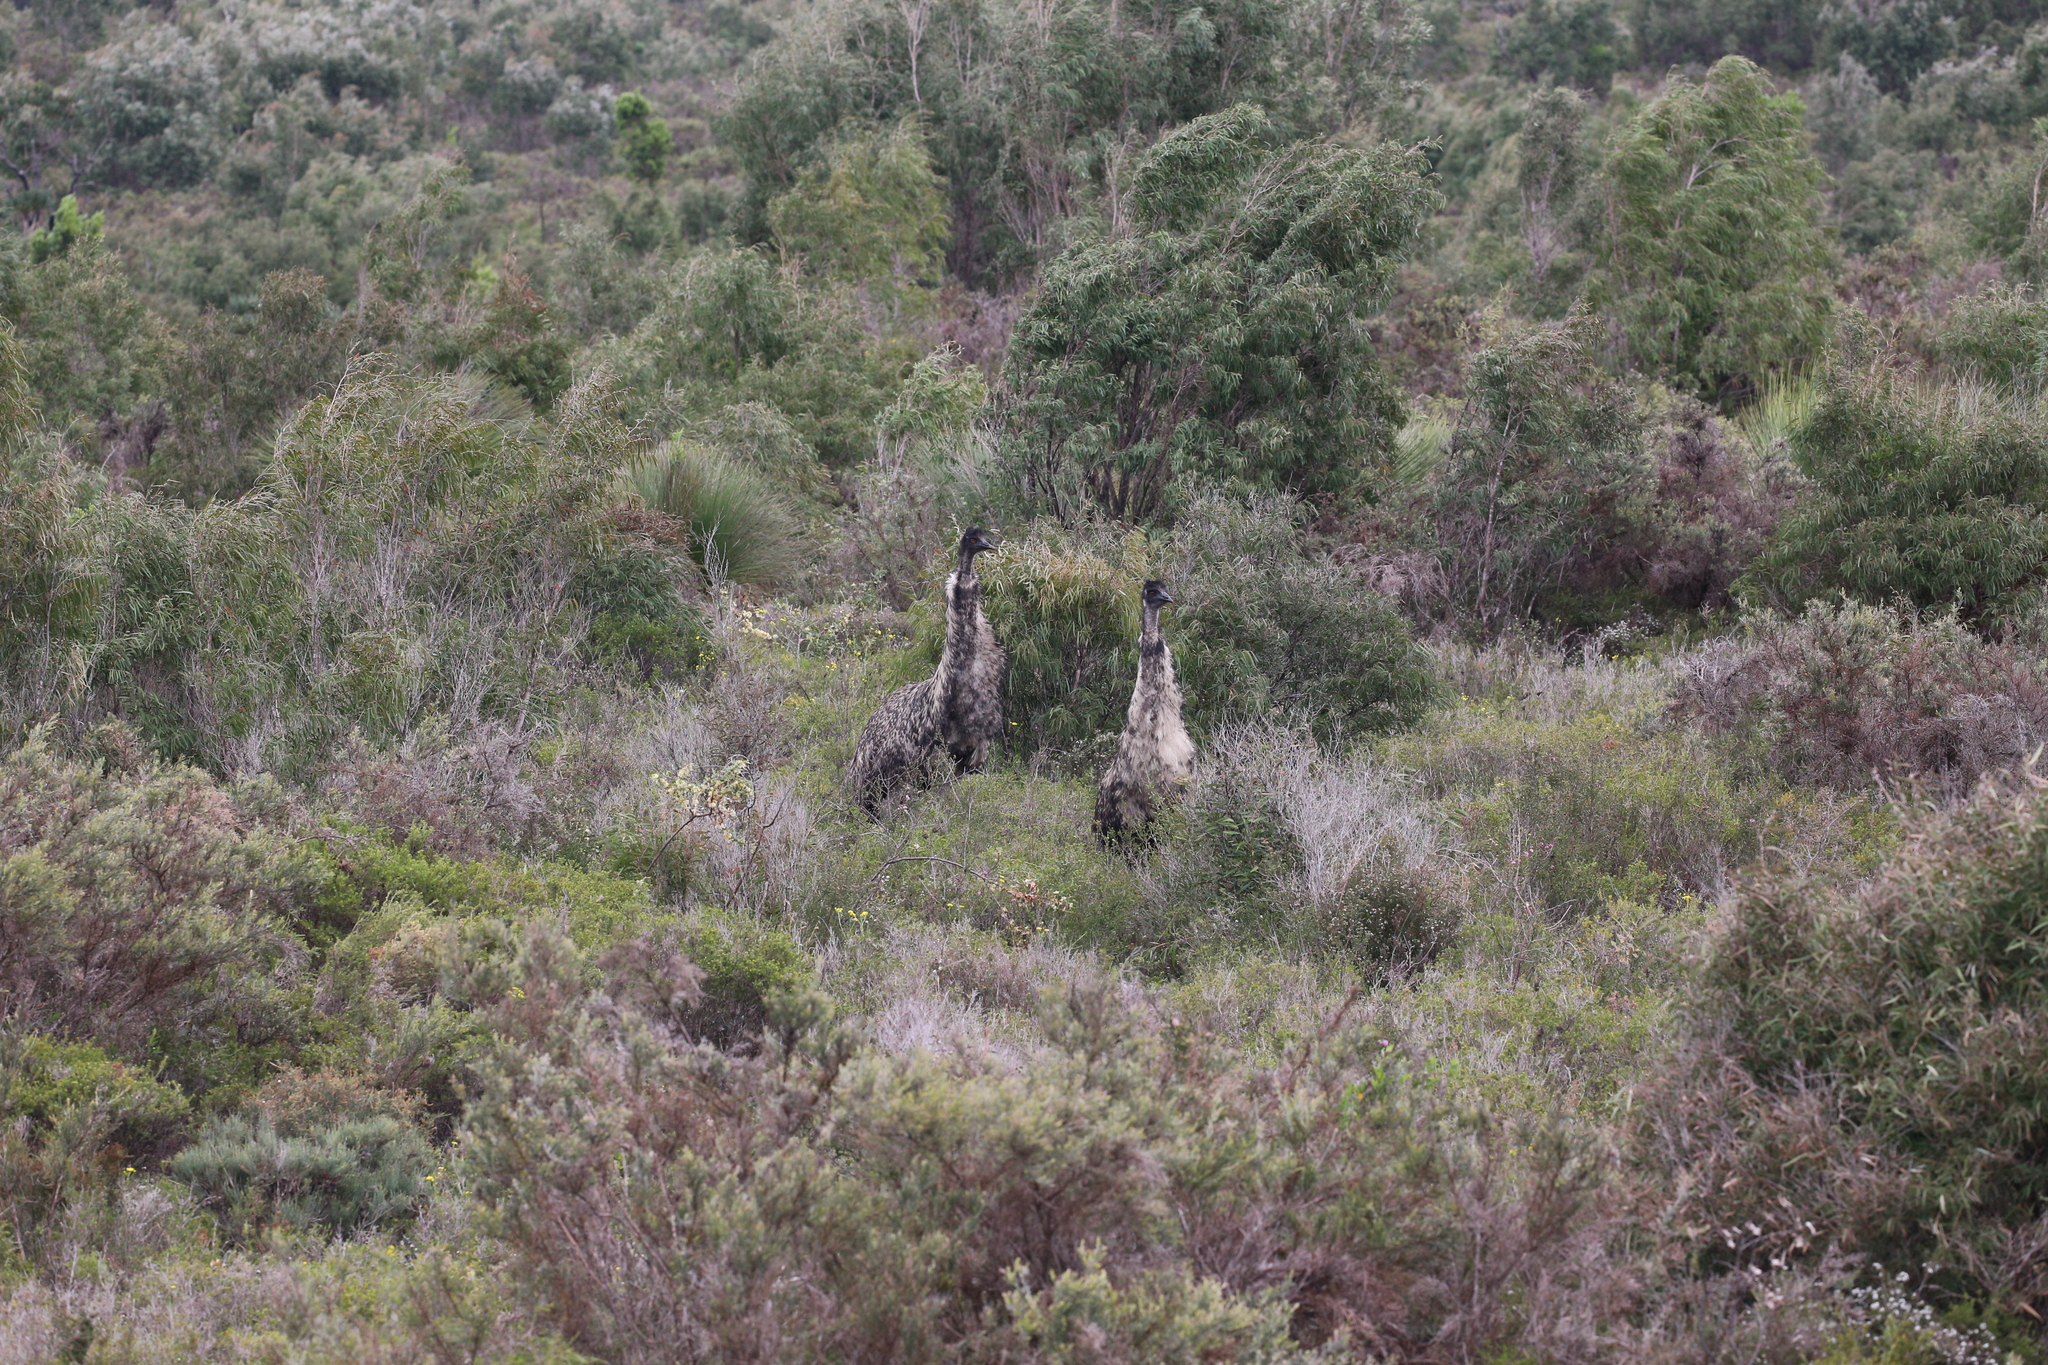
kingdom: Animalia
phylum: Chordata
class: Aves
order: Casuariiformes
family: Dromaiidae
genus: Dromaius
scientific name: Dromaius novaehollandiae
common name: Emu
